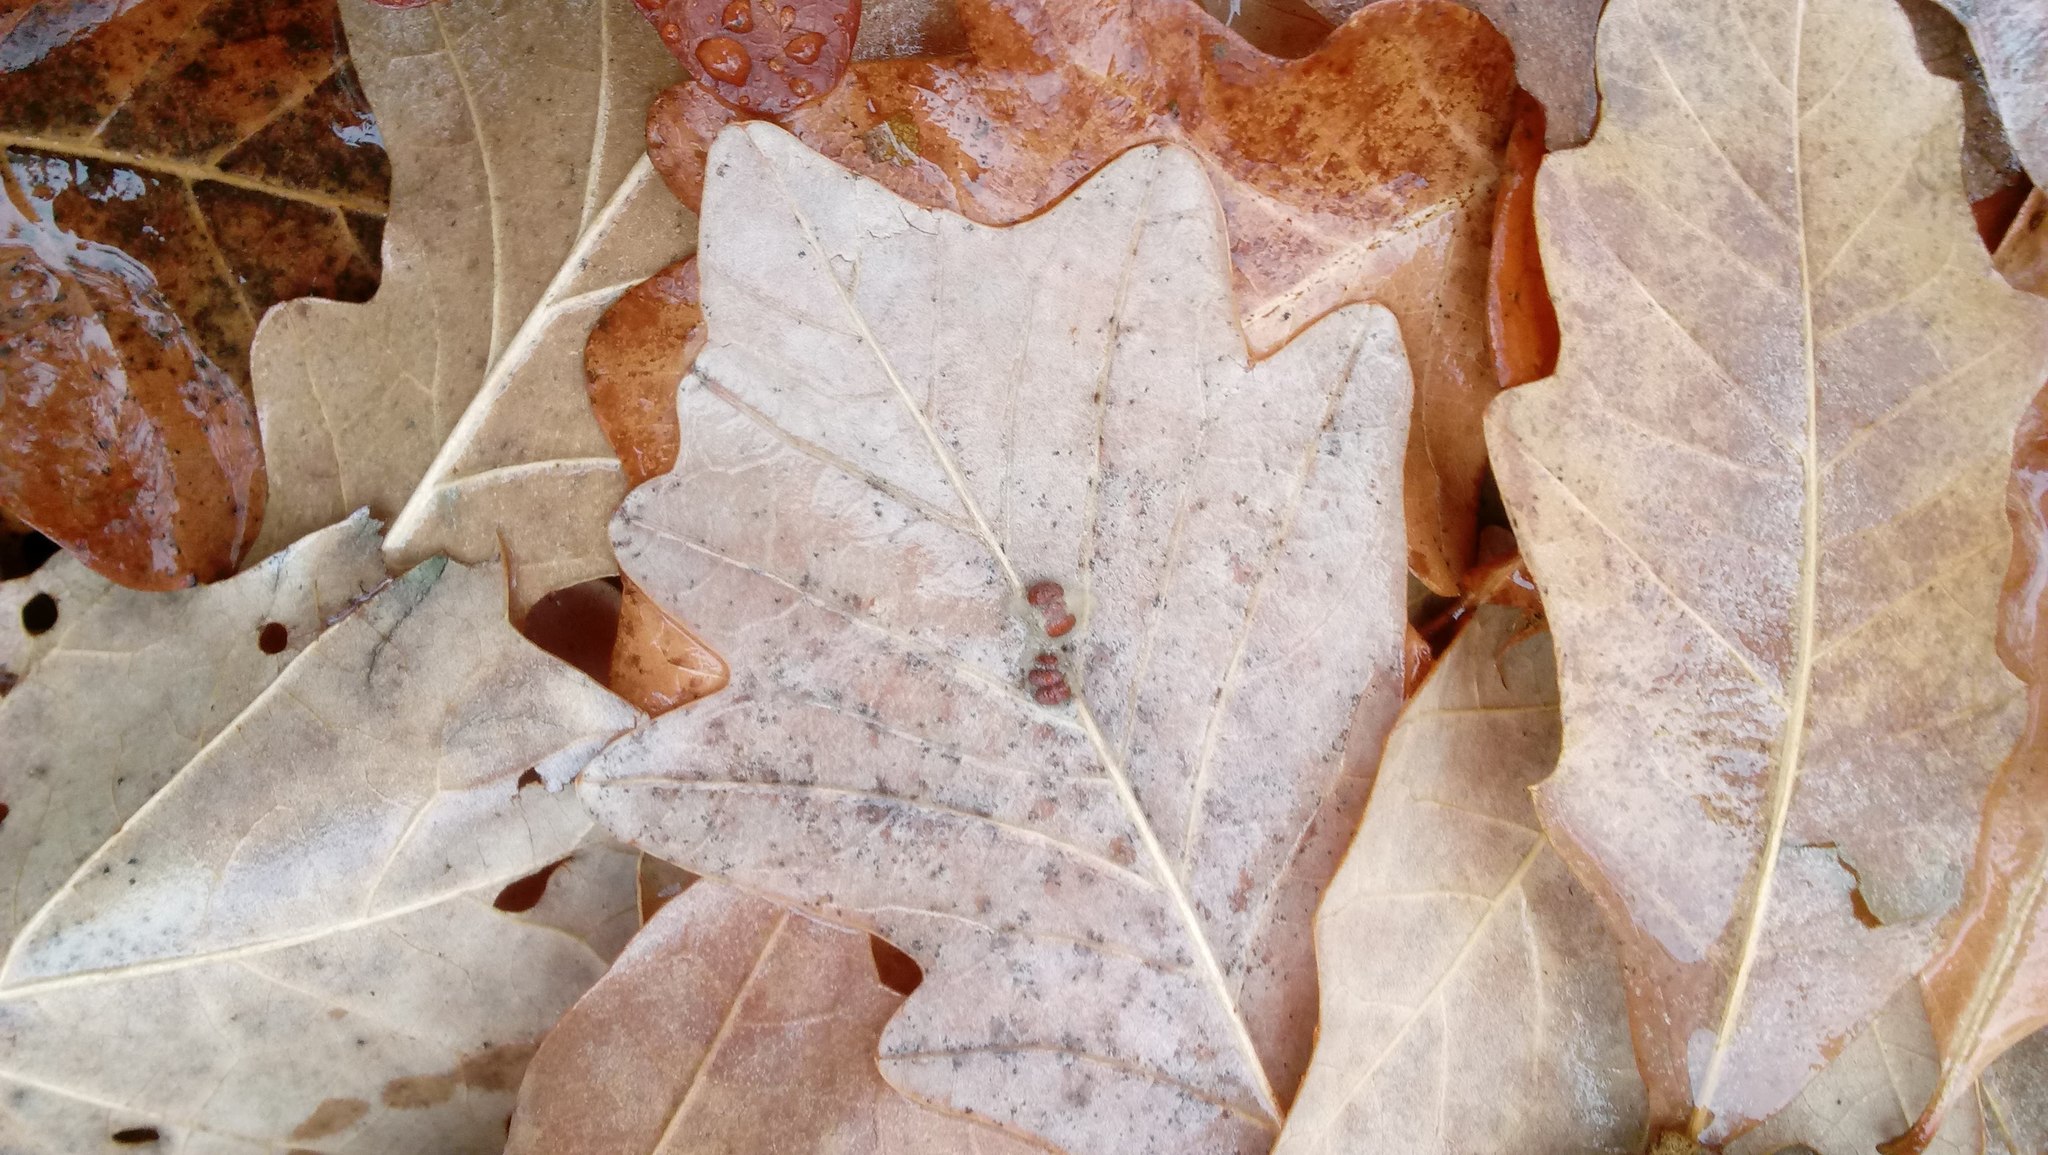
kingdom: Animalia
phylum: Arthropoda
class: Insecta
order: Hymenoptera
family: Cynipidae
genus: Andricus
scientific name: Andricus Druon ignotum
